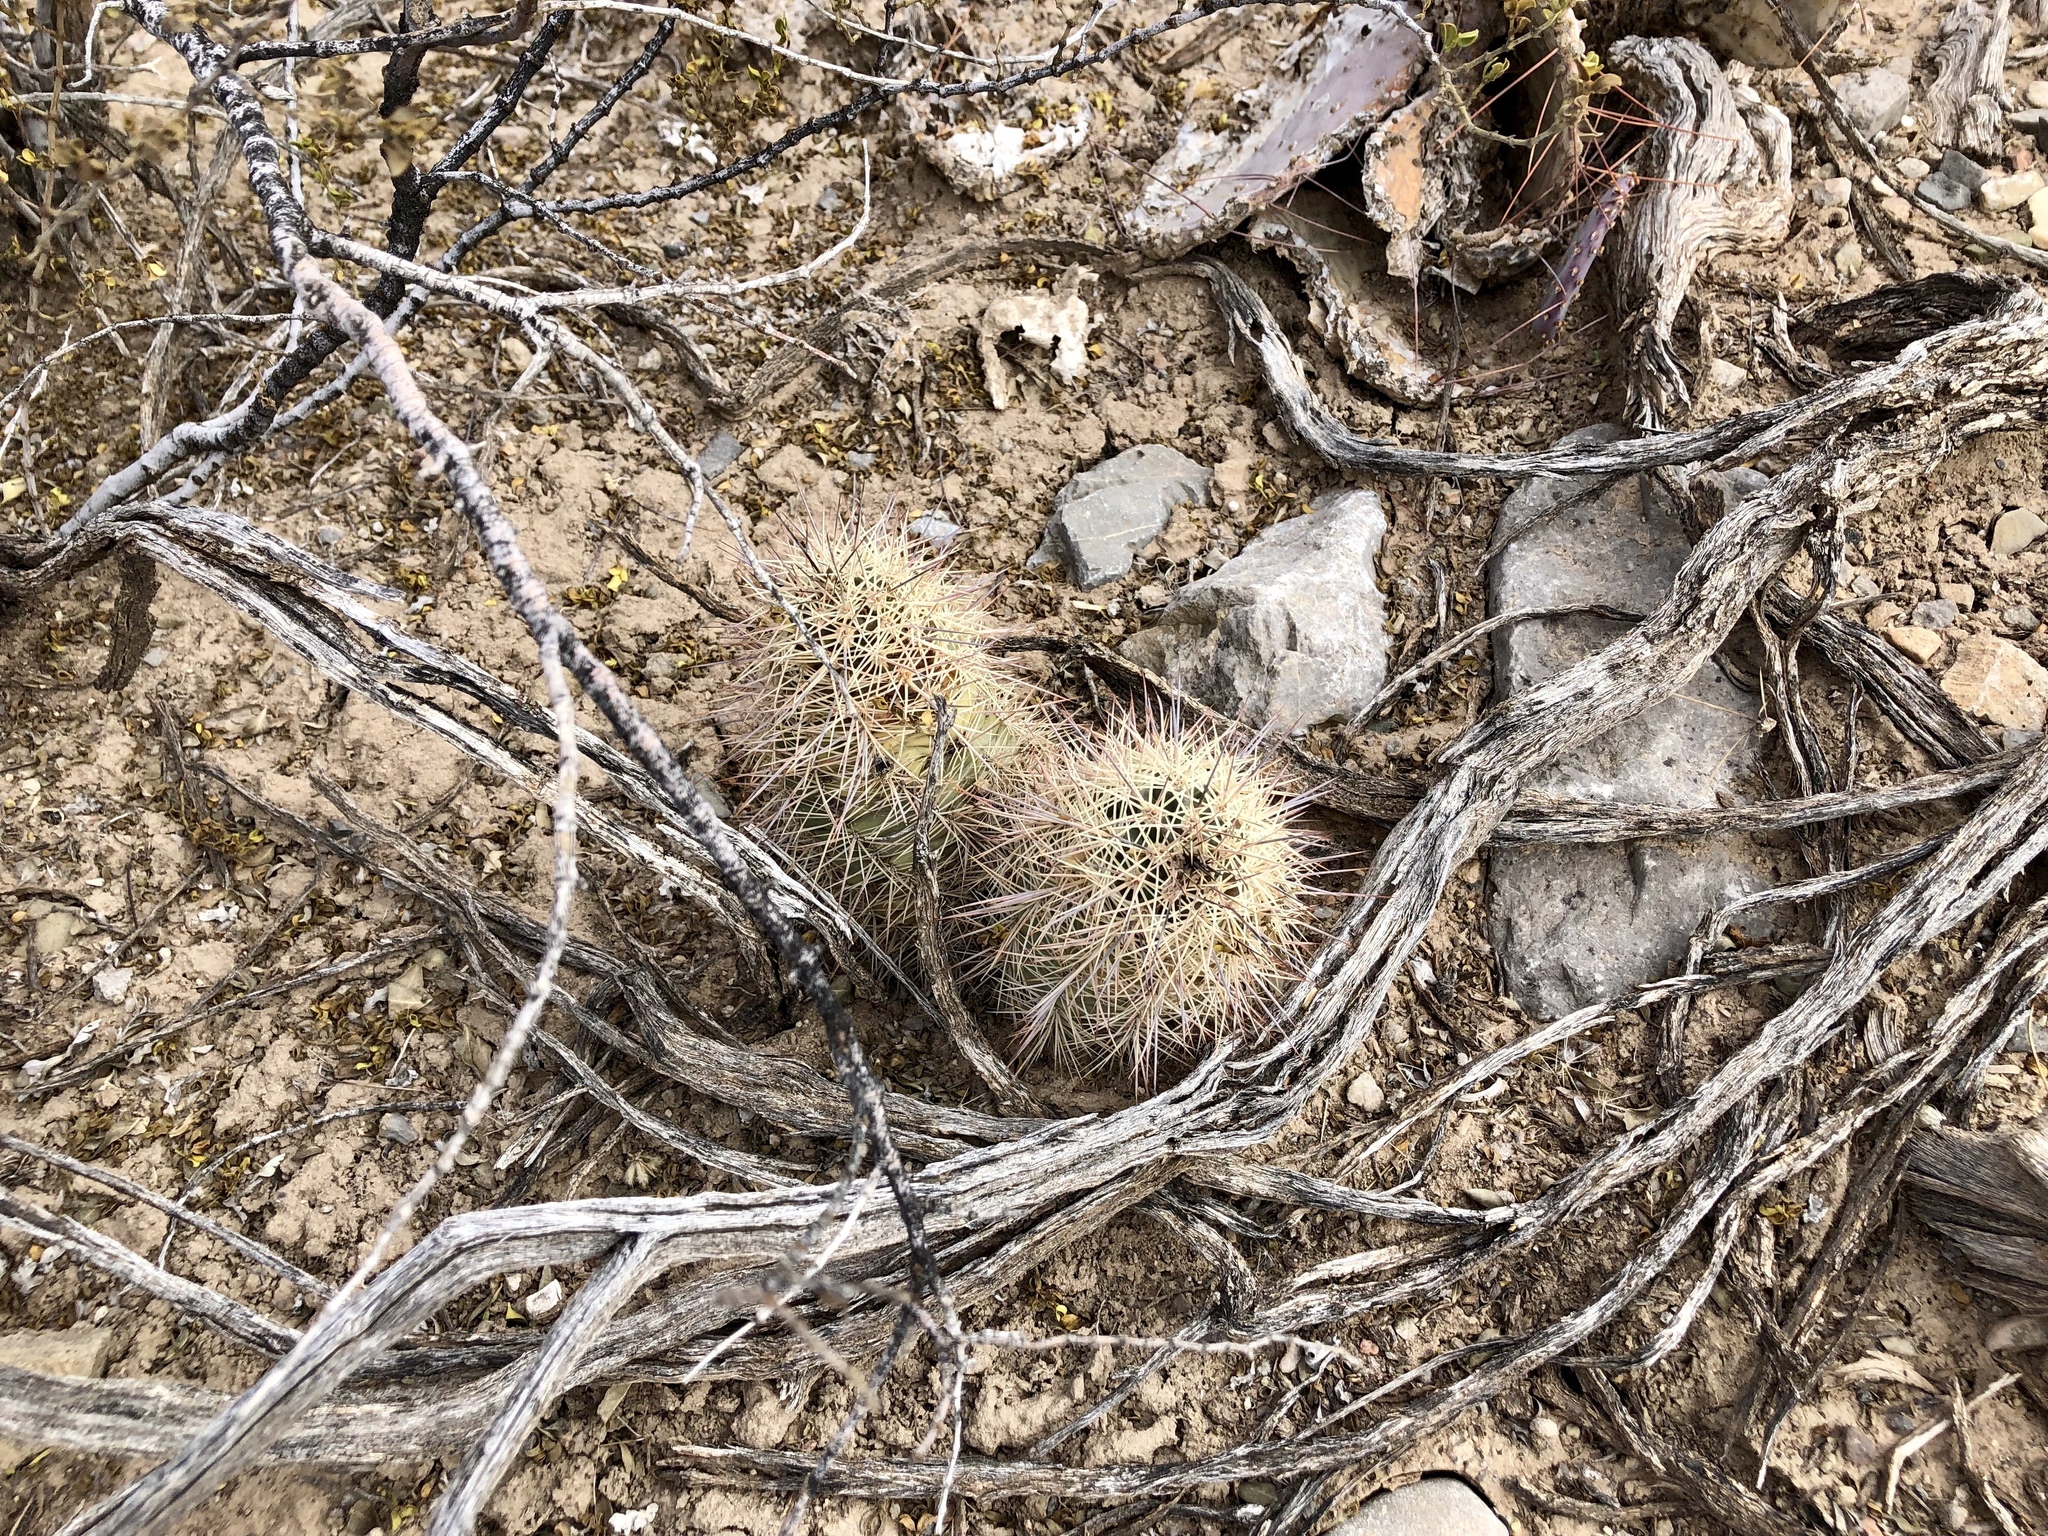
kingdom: Plantae
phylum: Tracheophyta
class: Magnoliopsida
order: Caryophyllales
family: Cactaceae
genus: Echinocereus
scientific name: Echinocereus coccineus
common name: Scarlet hedgehog cactus
